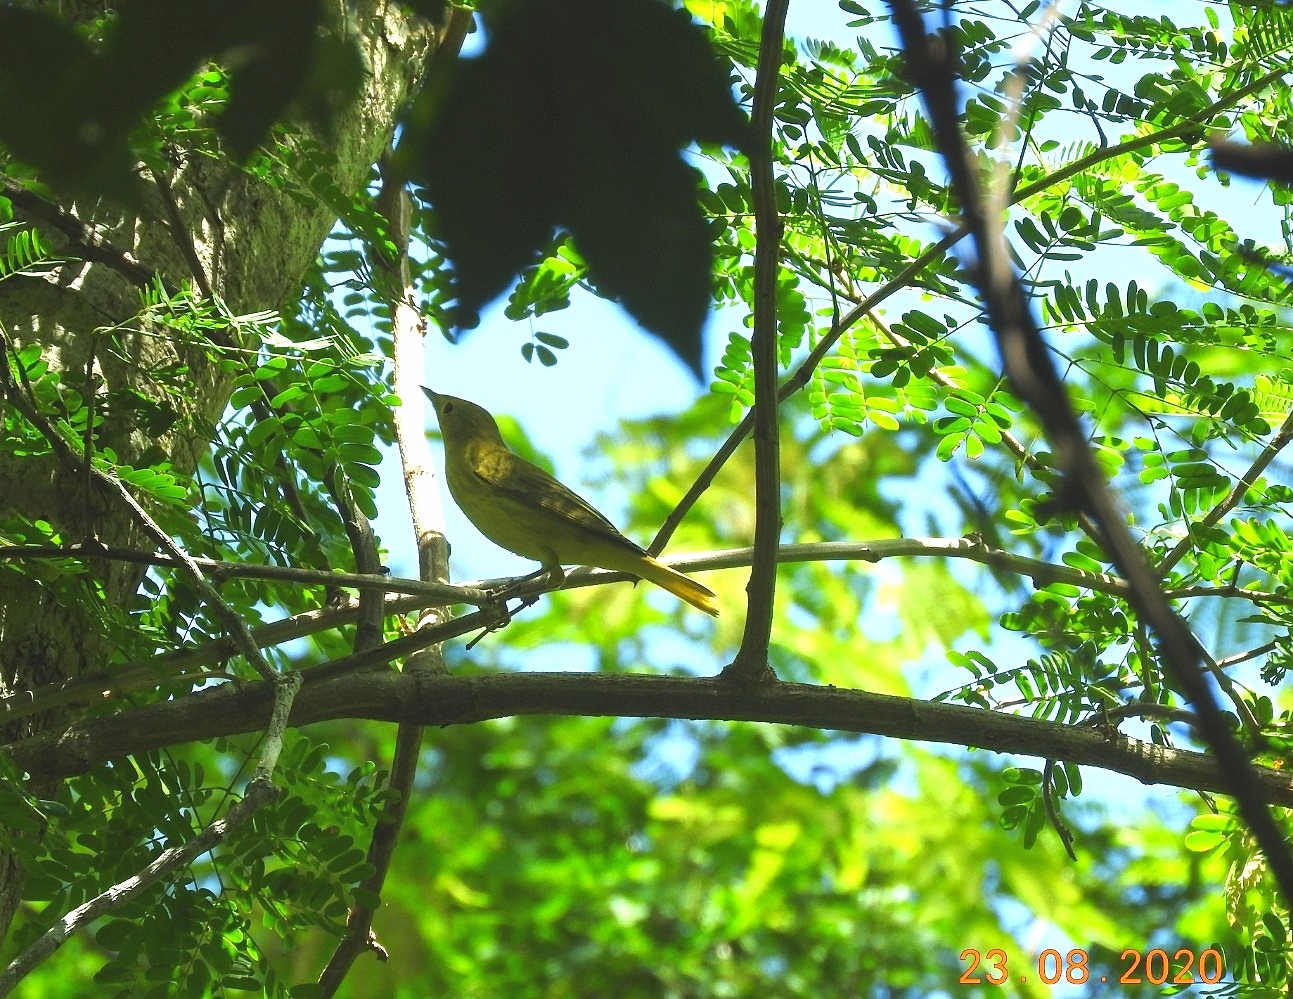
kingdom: Animalia
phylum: Chordata
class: Aves
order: Passeriformes
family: Parulidae
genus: Setophaga
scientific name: Setophaga petechia
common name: Yellow warbler
